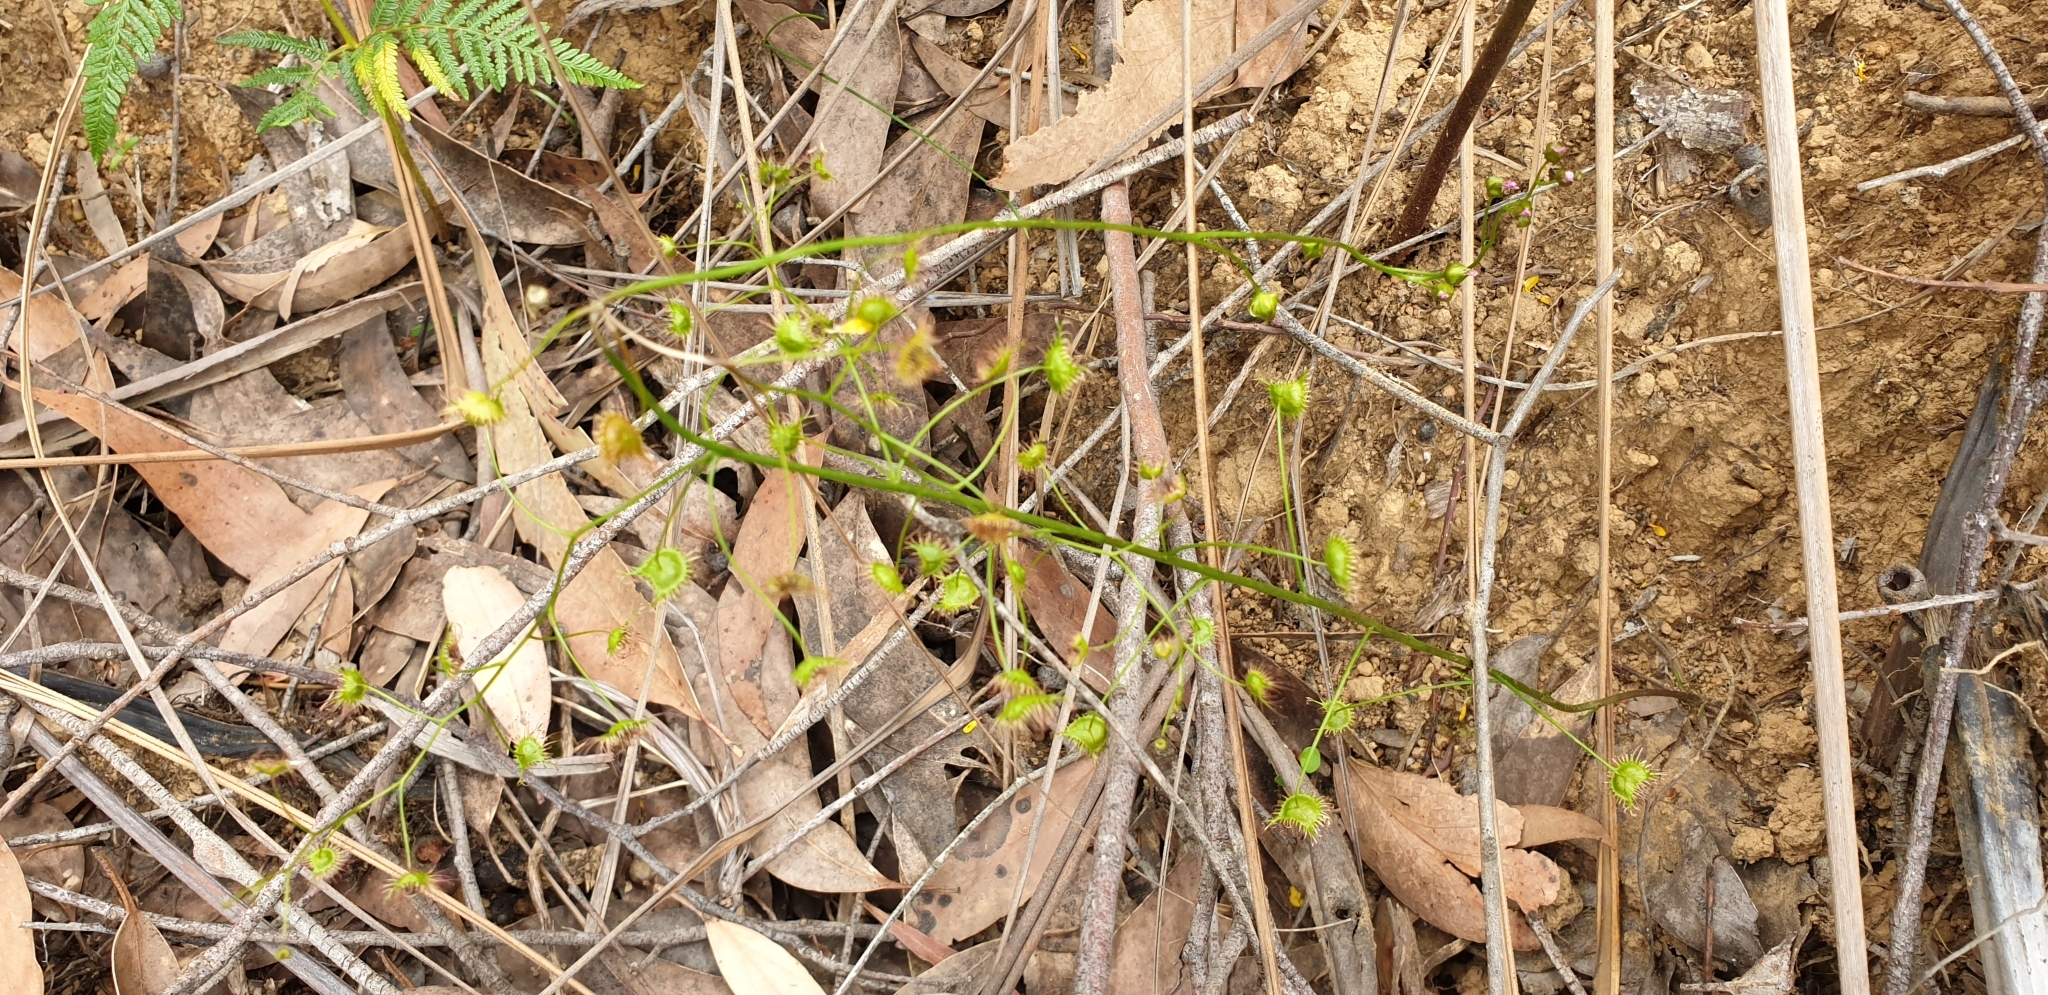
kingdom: Plantae
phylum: Tracheophyta
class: Magnoliopsida
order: Caryophyllales
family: Droseraceae
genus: Drosera
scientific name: Drosera peltata
